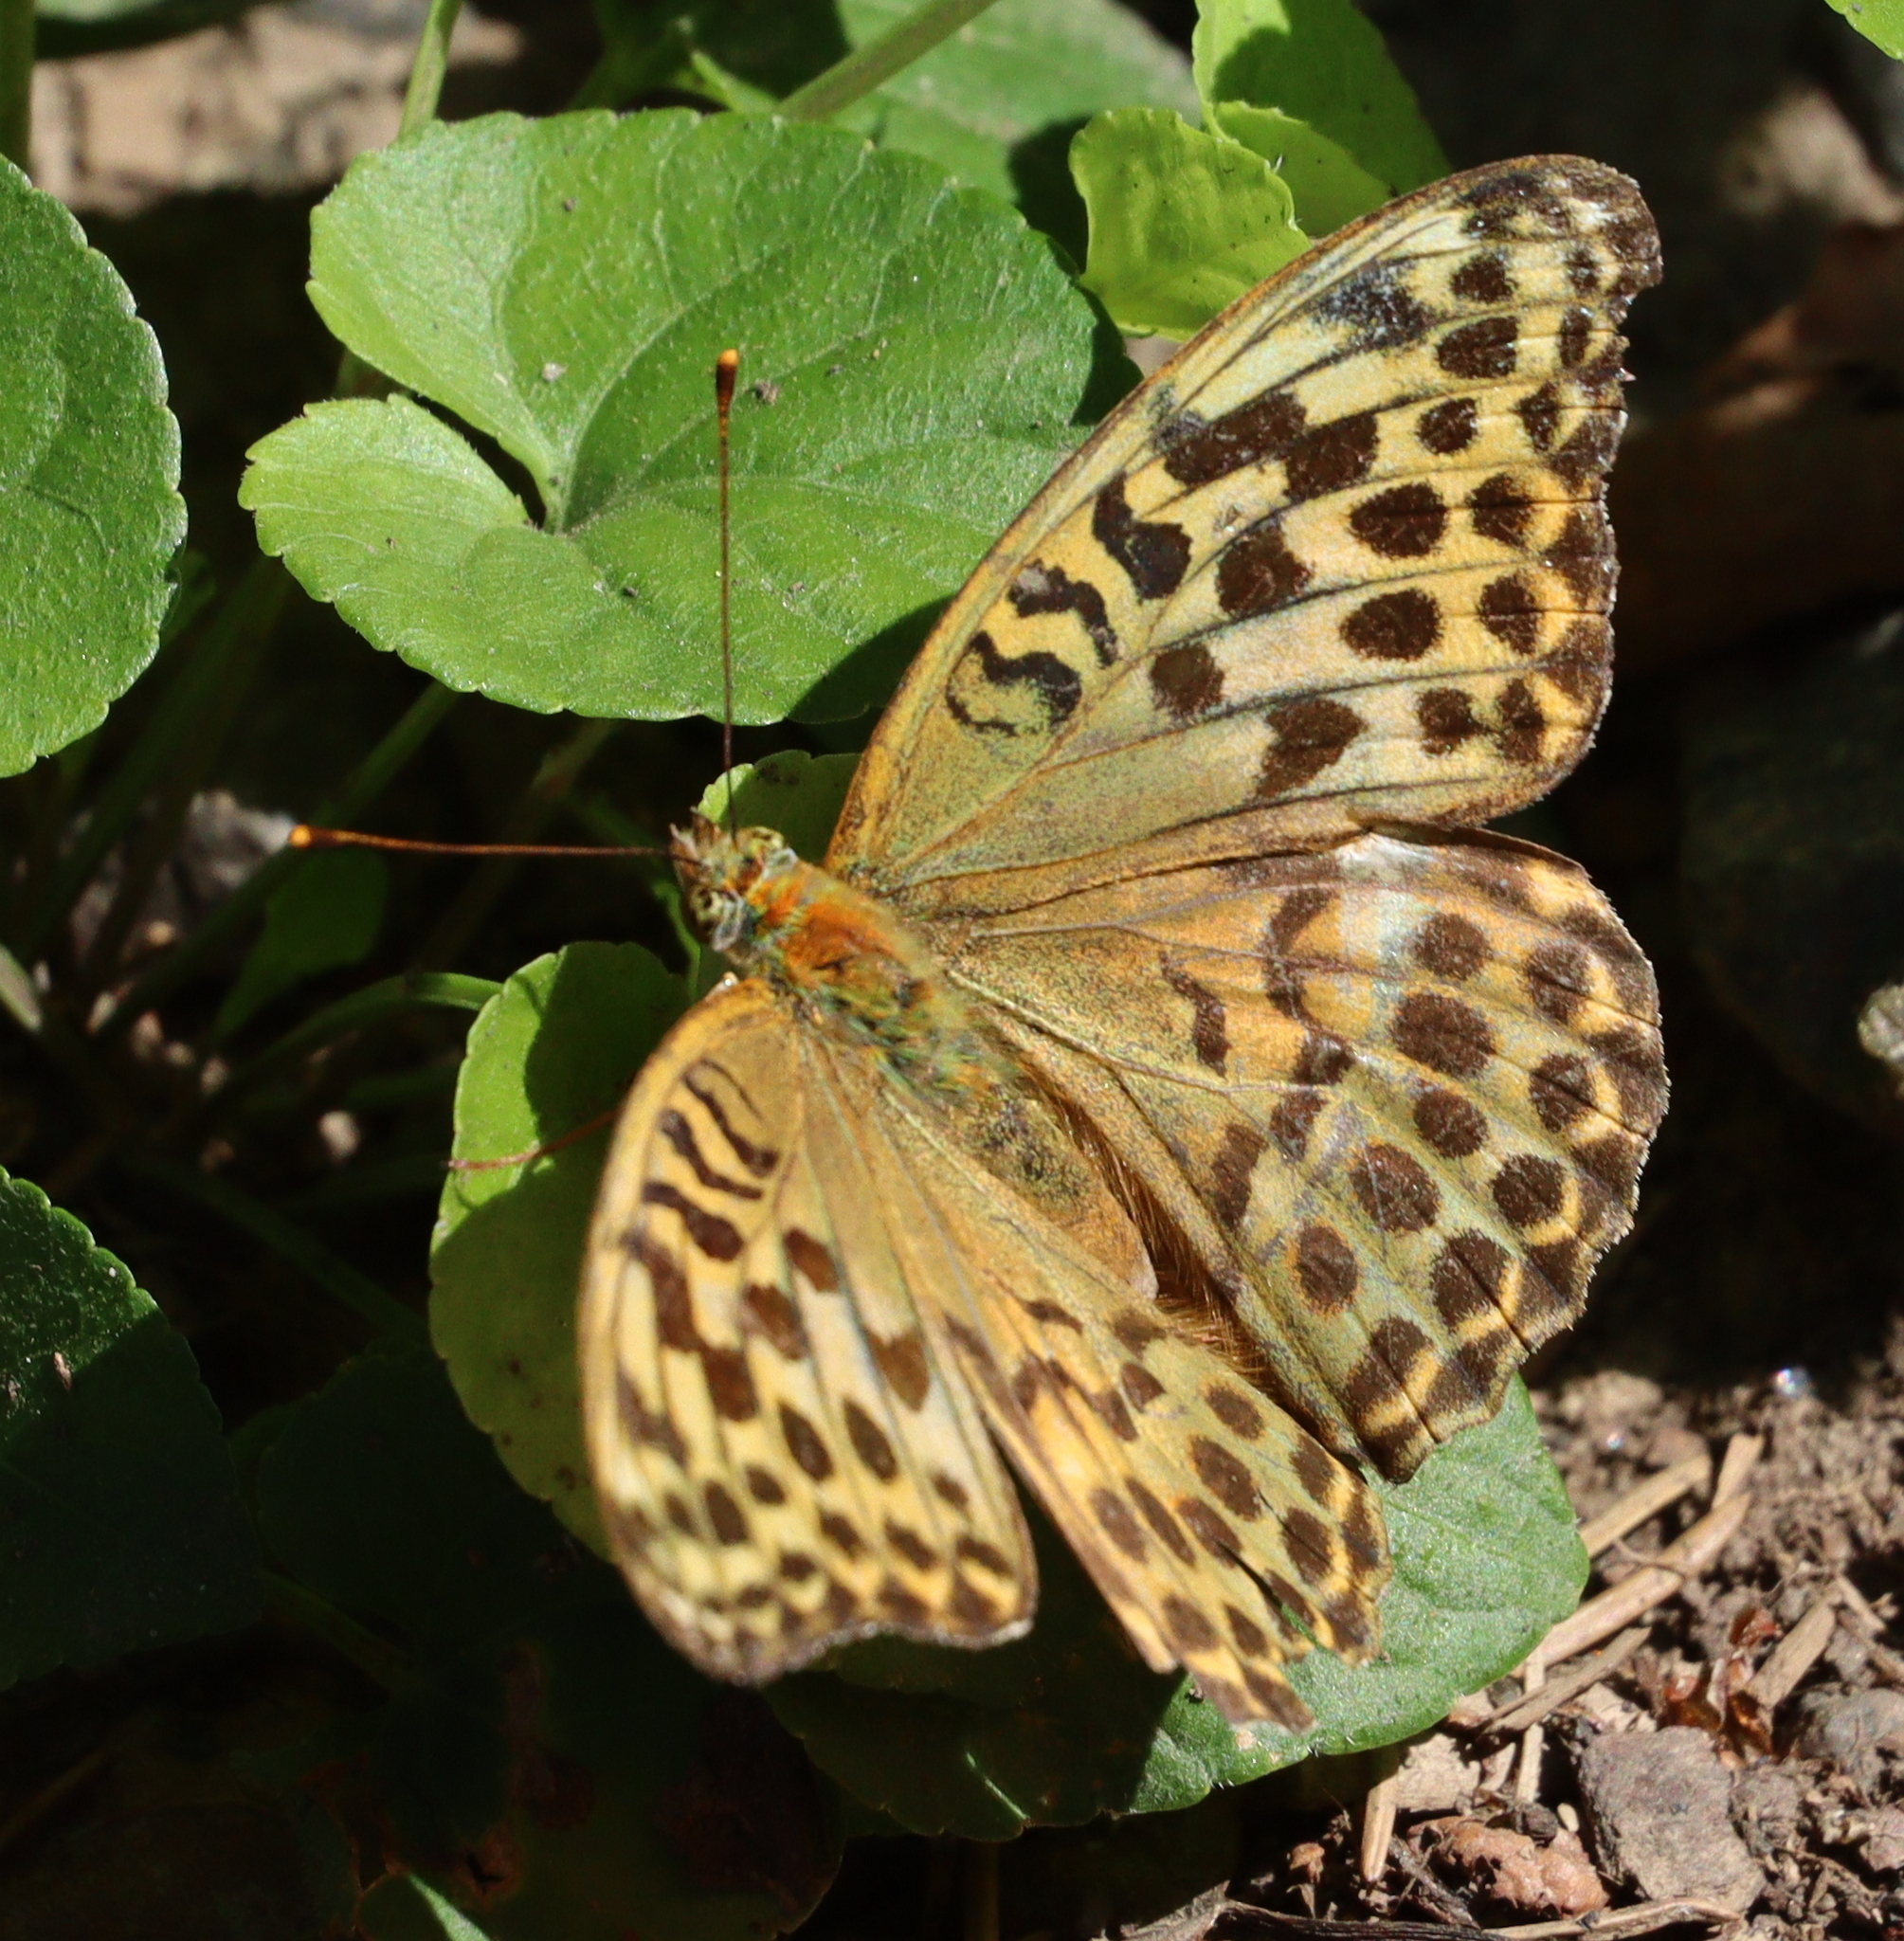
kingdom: Animalia
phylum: Arthropoda
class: Insecta
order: Lepidoptera
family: Nymphalidae
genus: Argynnis
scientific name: Argynnis paphia
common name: Silver-washed fritillary
